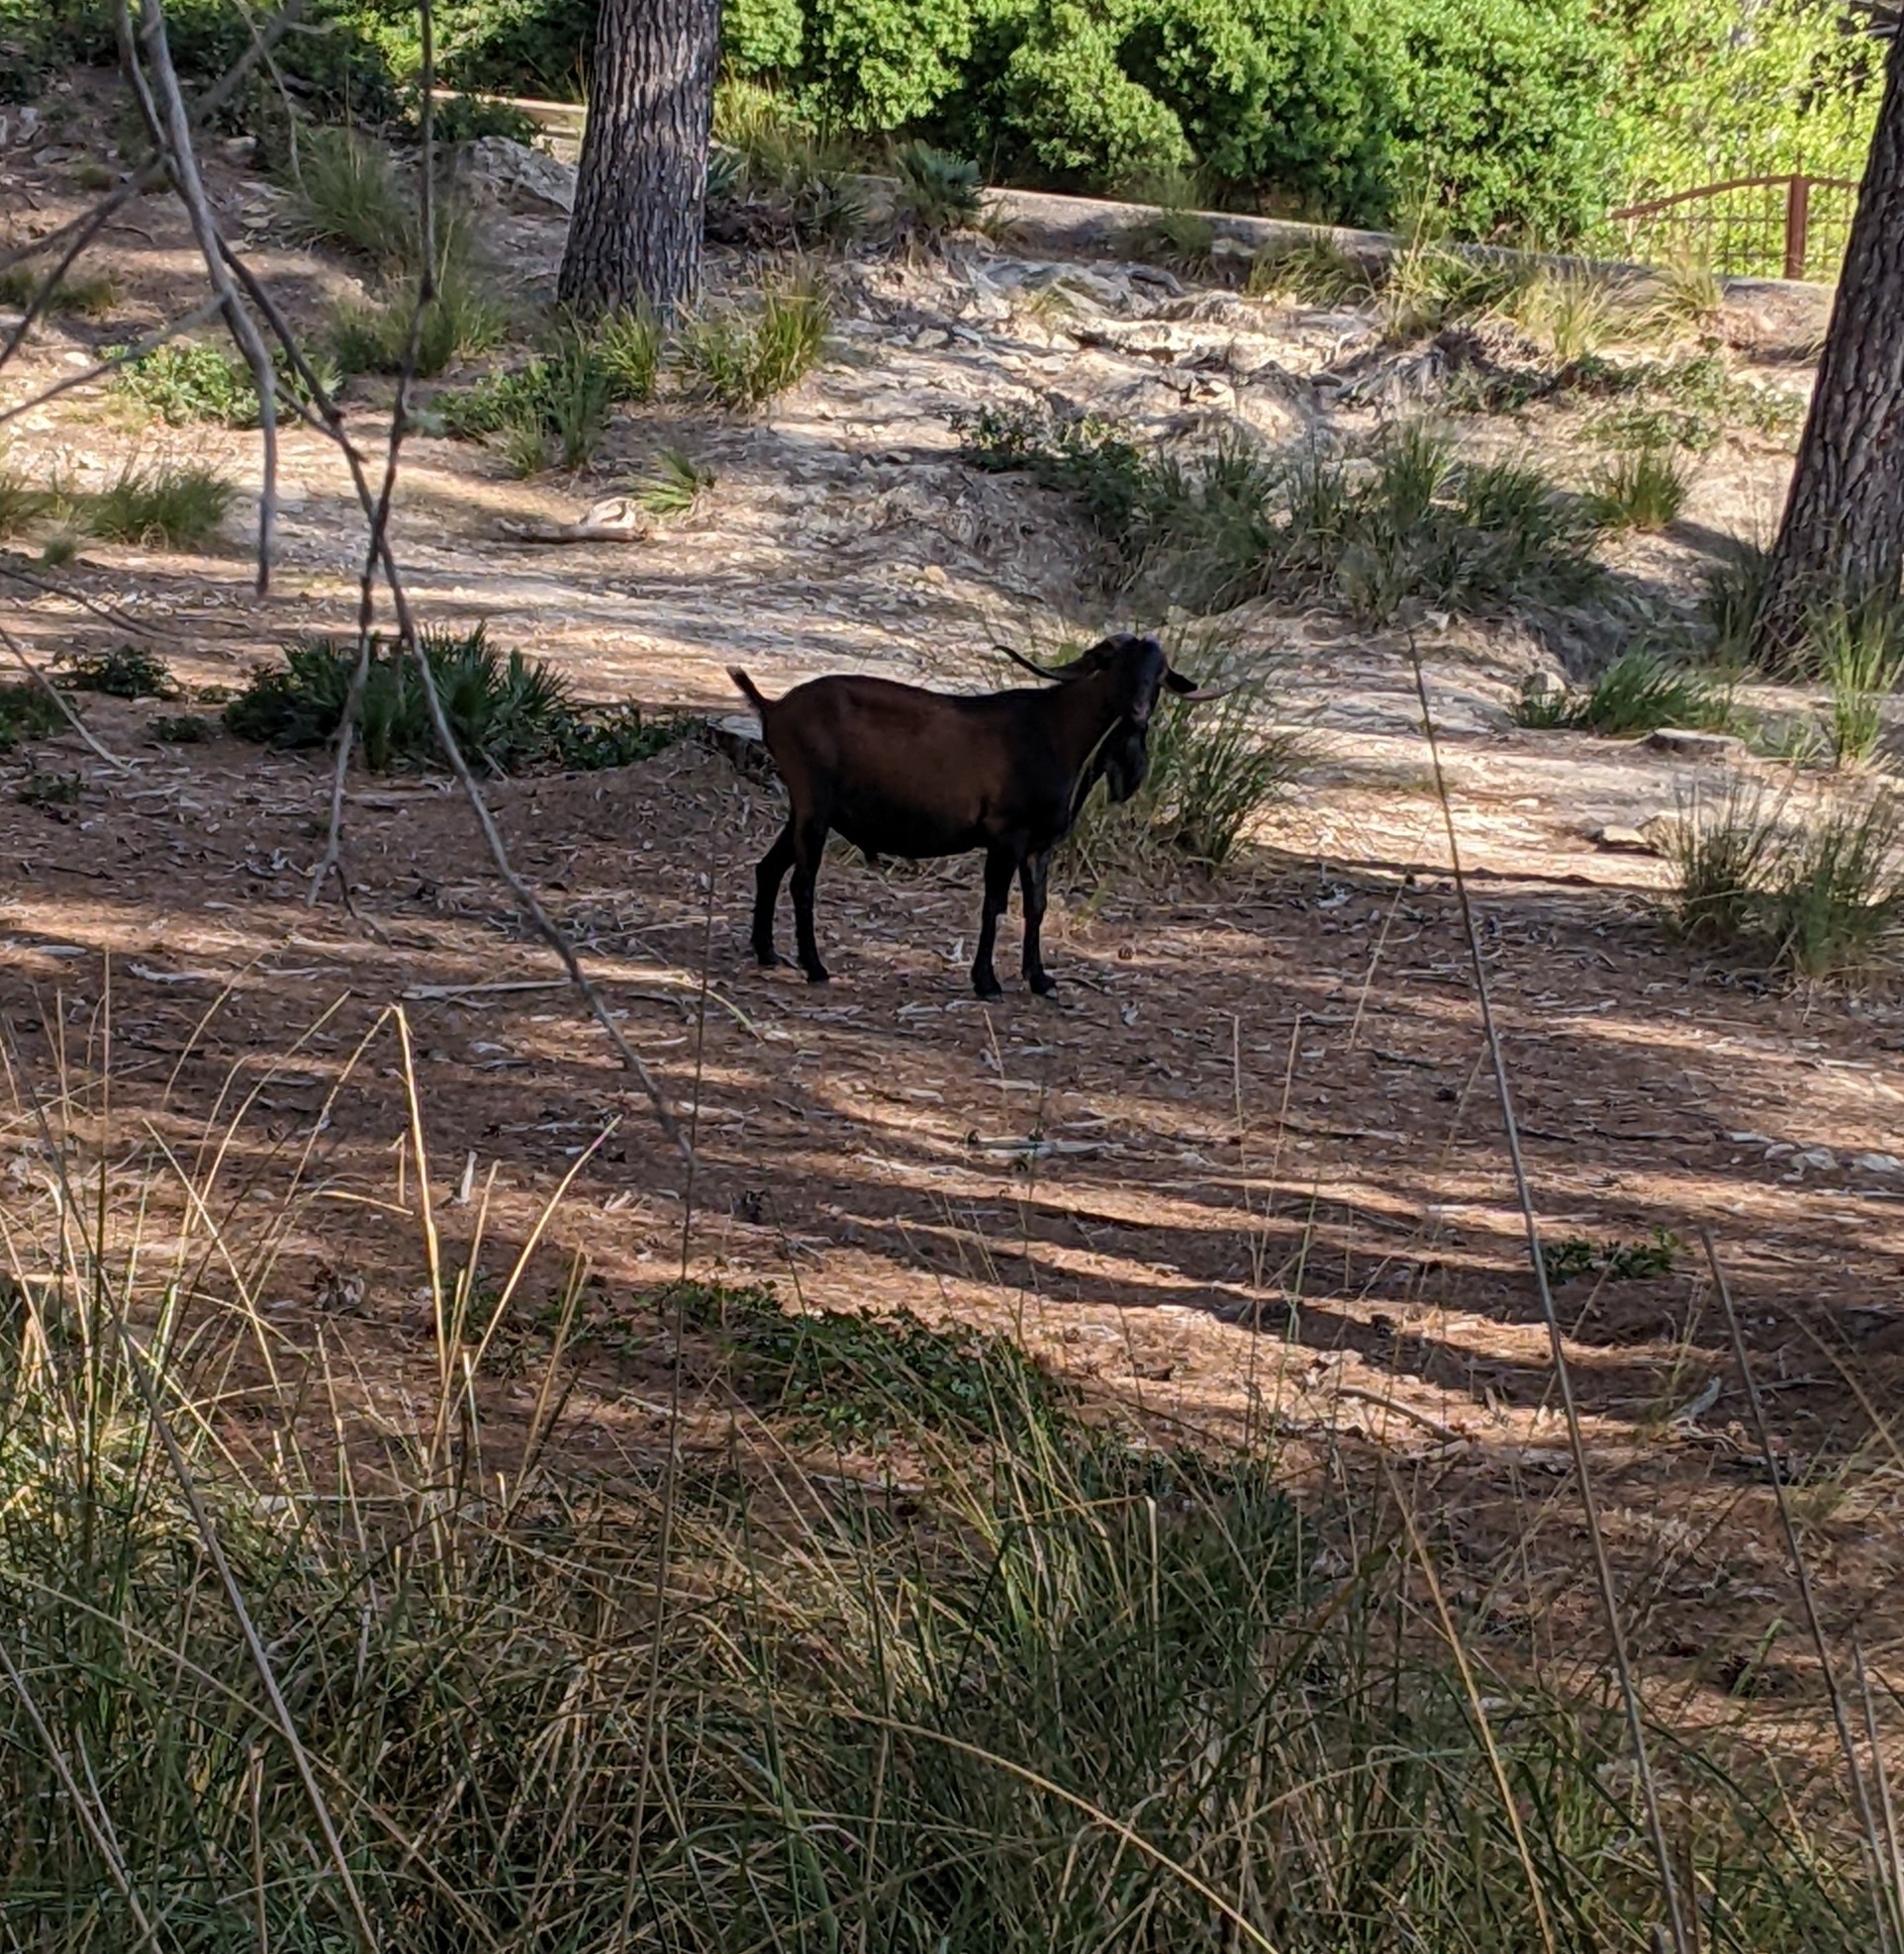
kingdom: Animalia
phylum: Chordata
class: Mammalia
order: Artiodactyla
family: Bovidae
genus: Capra
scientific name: Capra hircus
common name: Domestic goat
